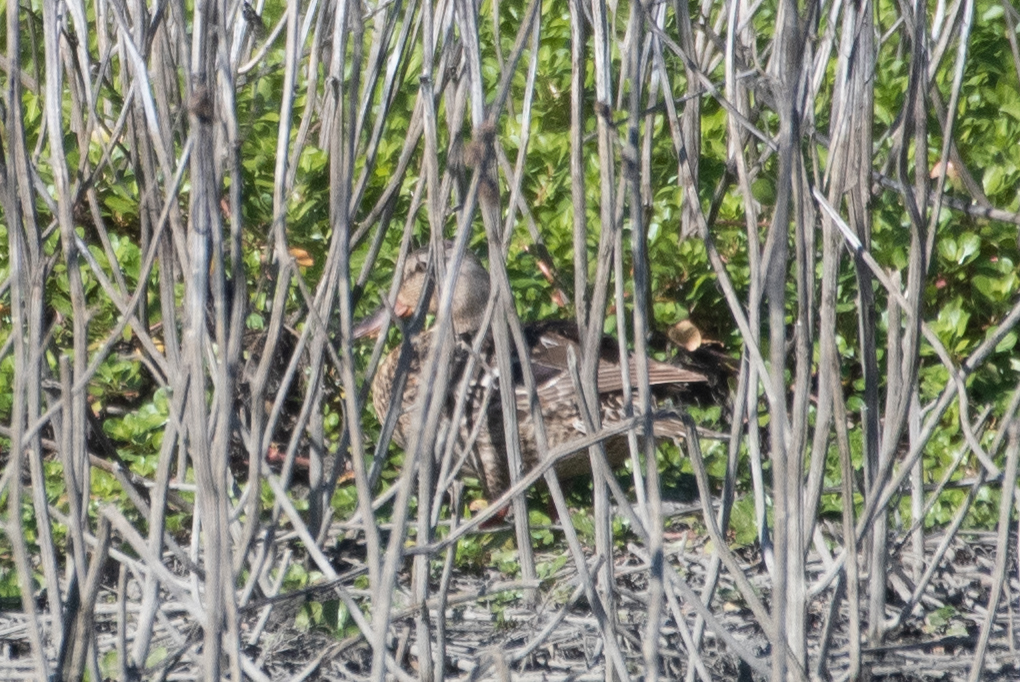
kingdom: Animalia
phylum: Chordata
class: Aves
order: Anseriformes
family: Anatidae
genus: Anas
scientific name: Anas platyrhynchos
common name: Mallard
